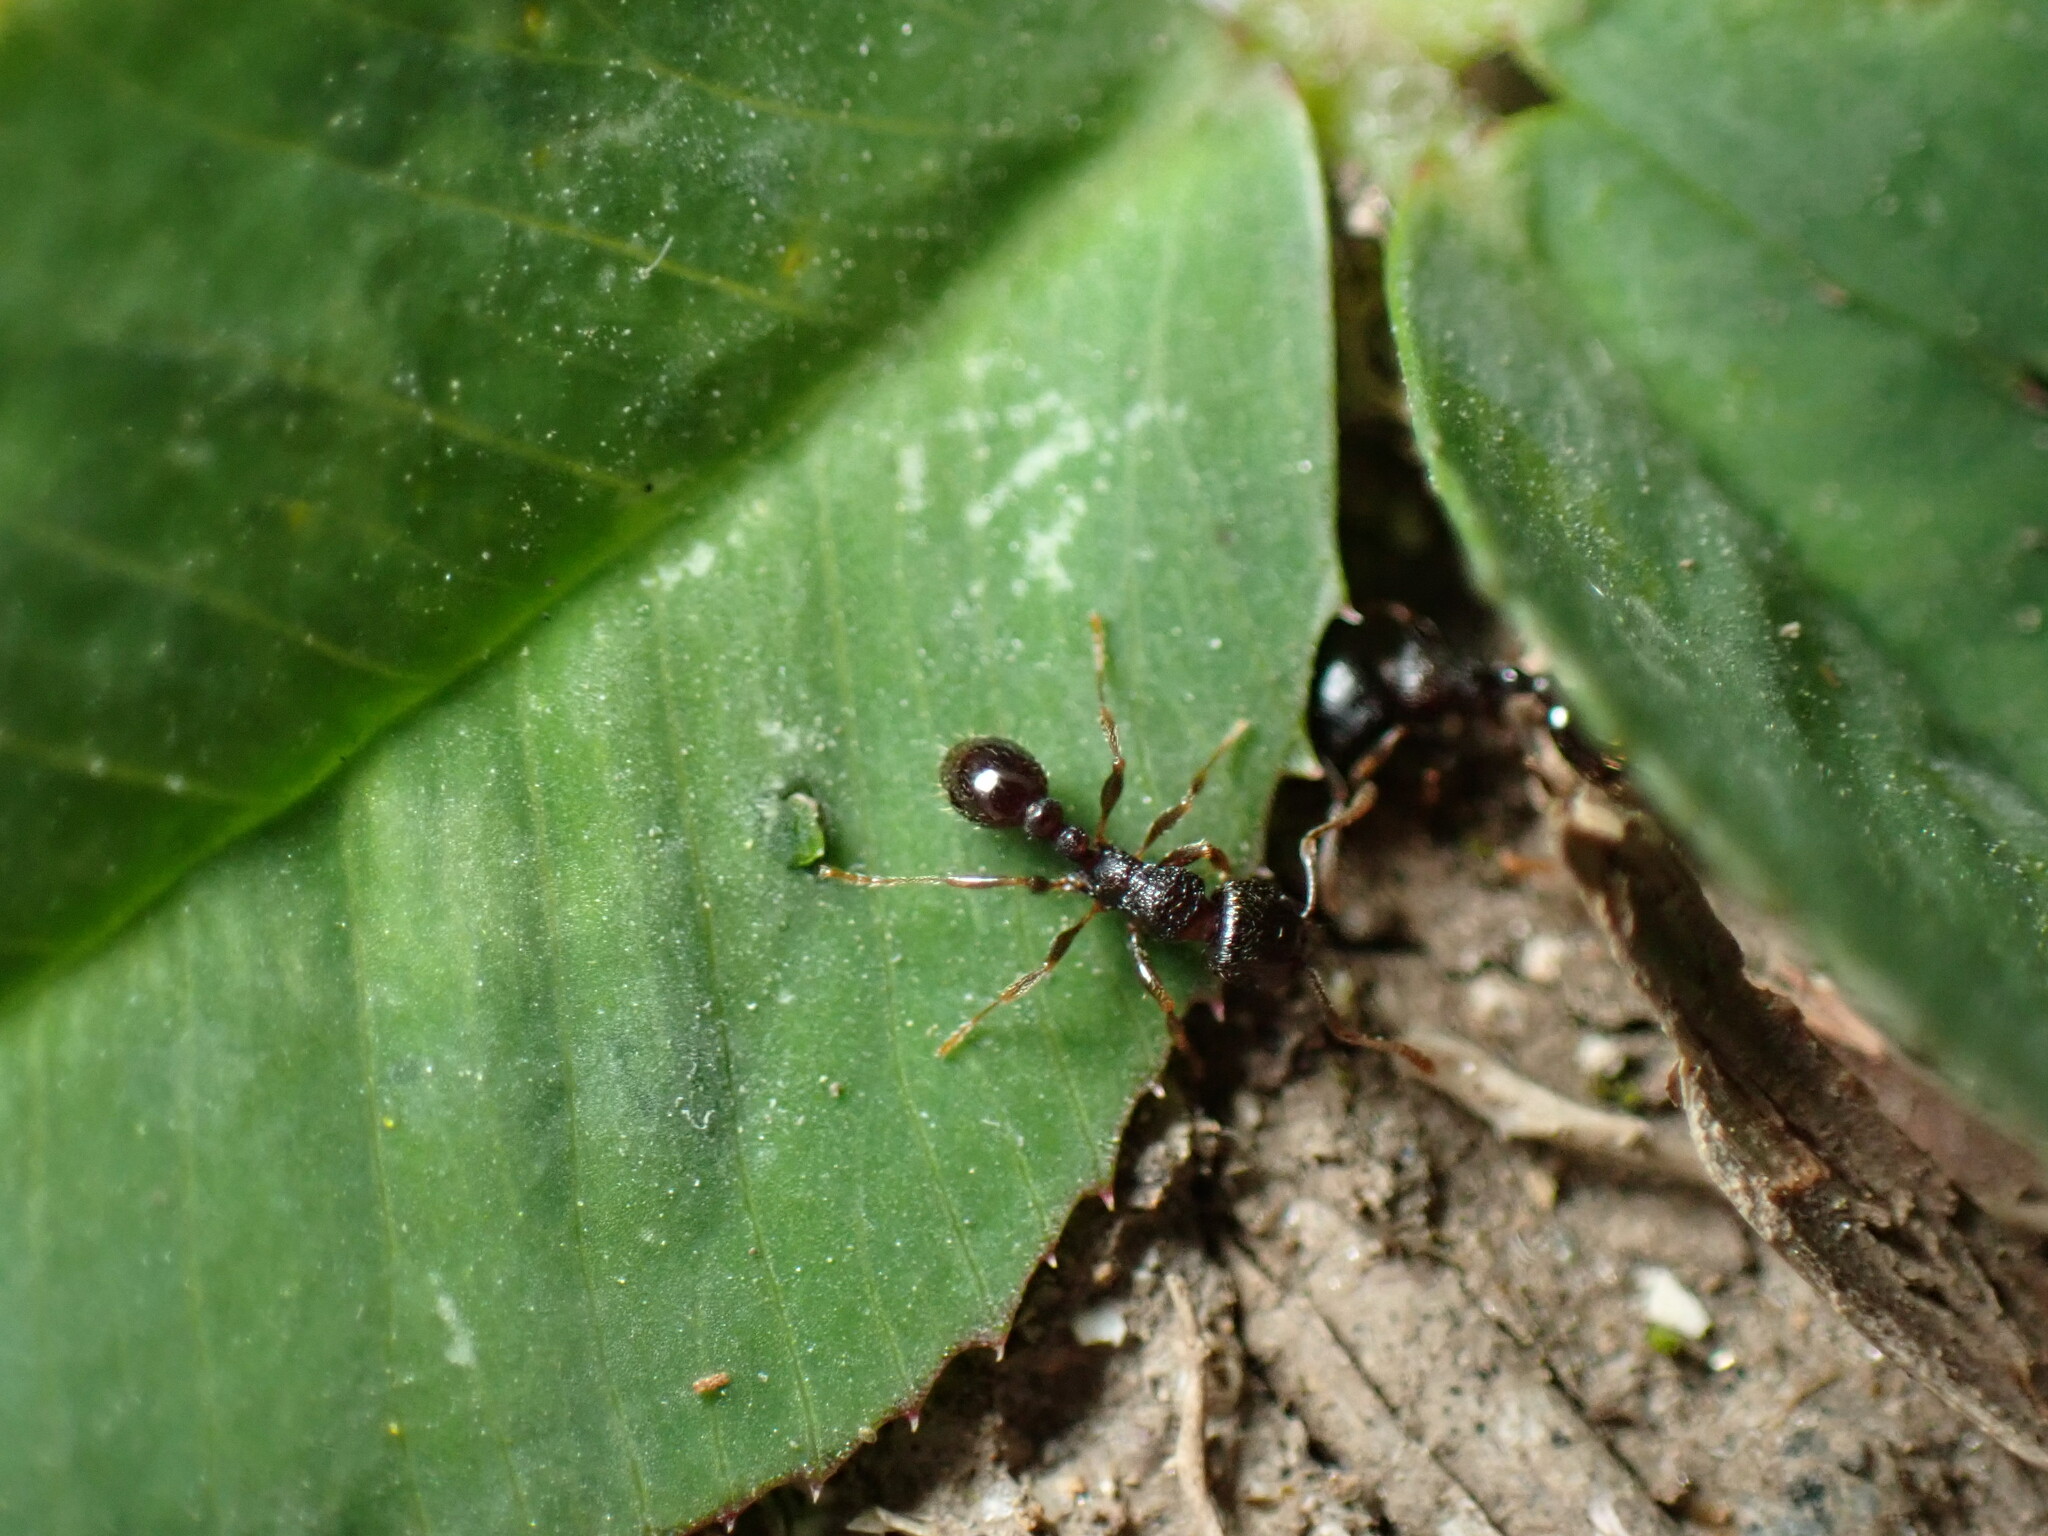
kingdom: Animalia
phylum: Arthropoda
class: Insecta
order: Hymenoptera
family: Formicidae
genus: Tetramorium
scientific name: Tetramorium tsushimae
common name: Ant
